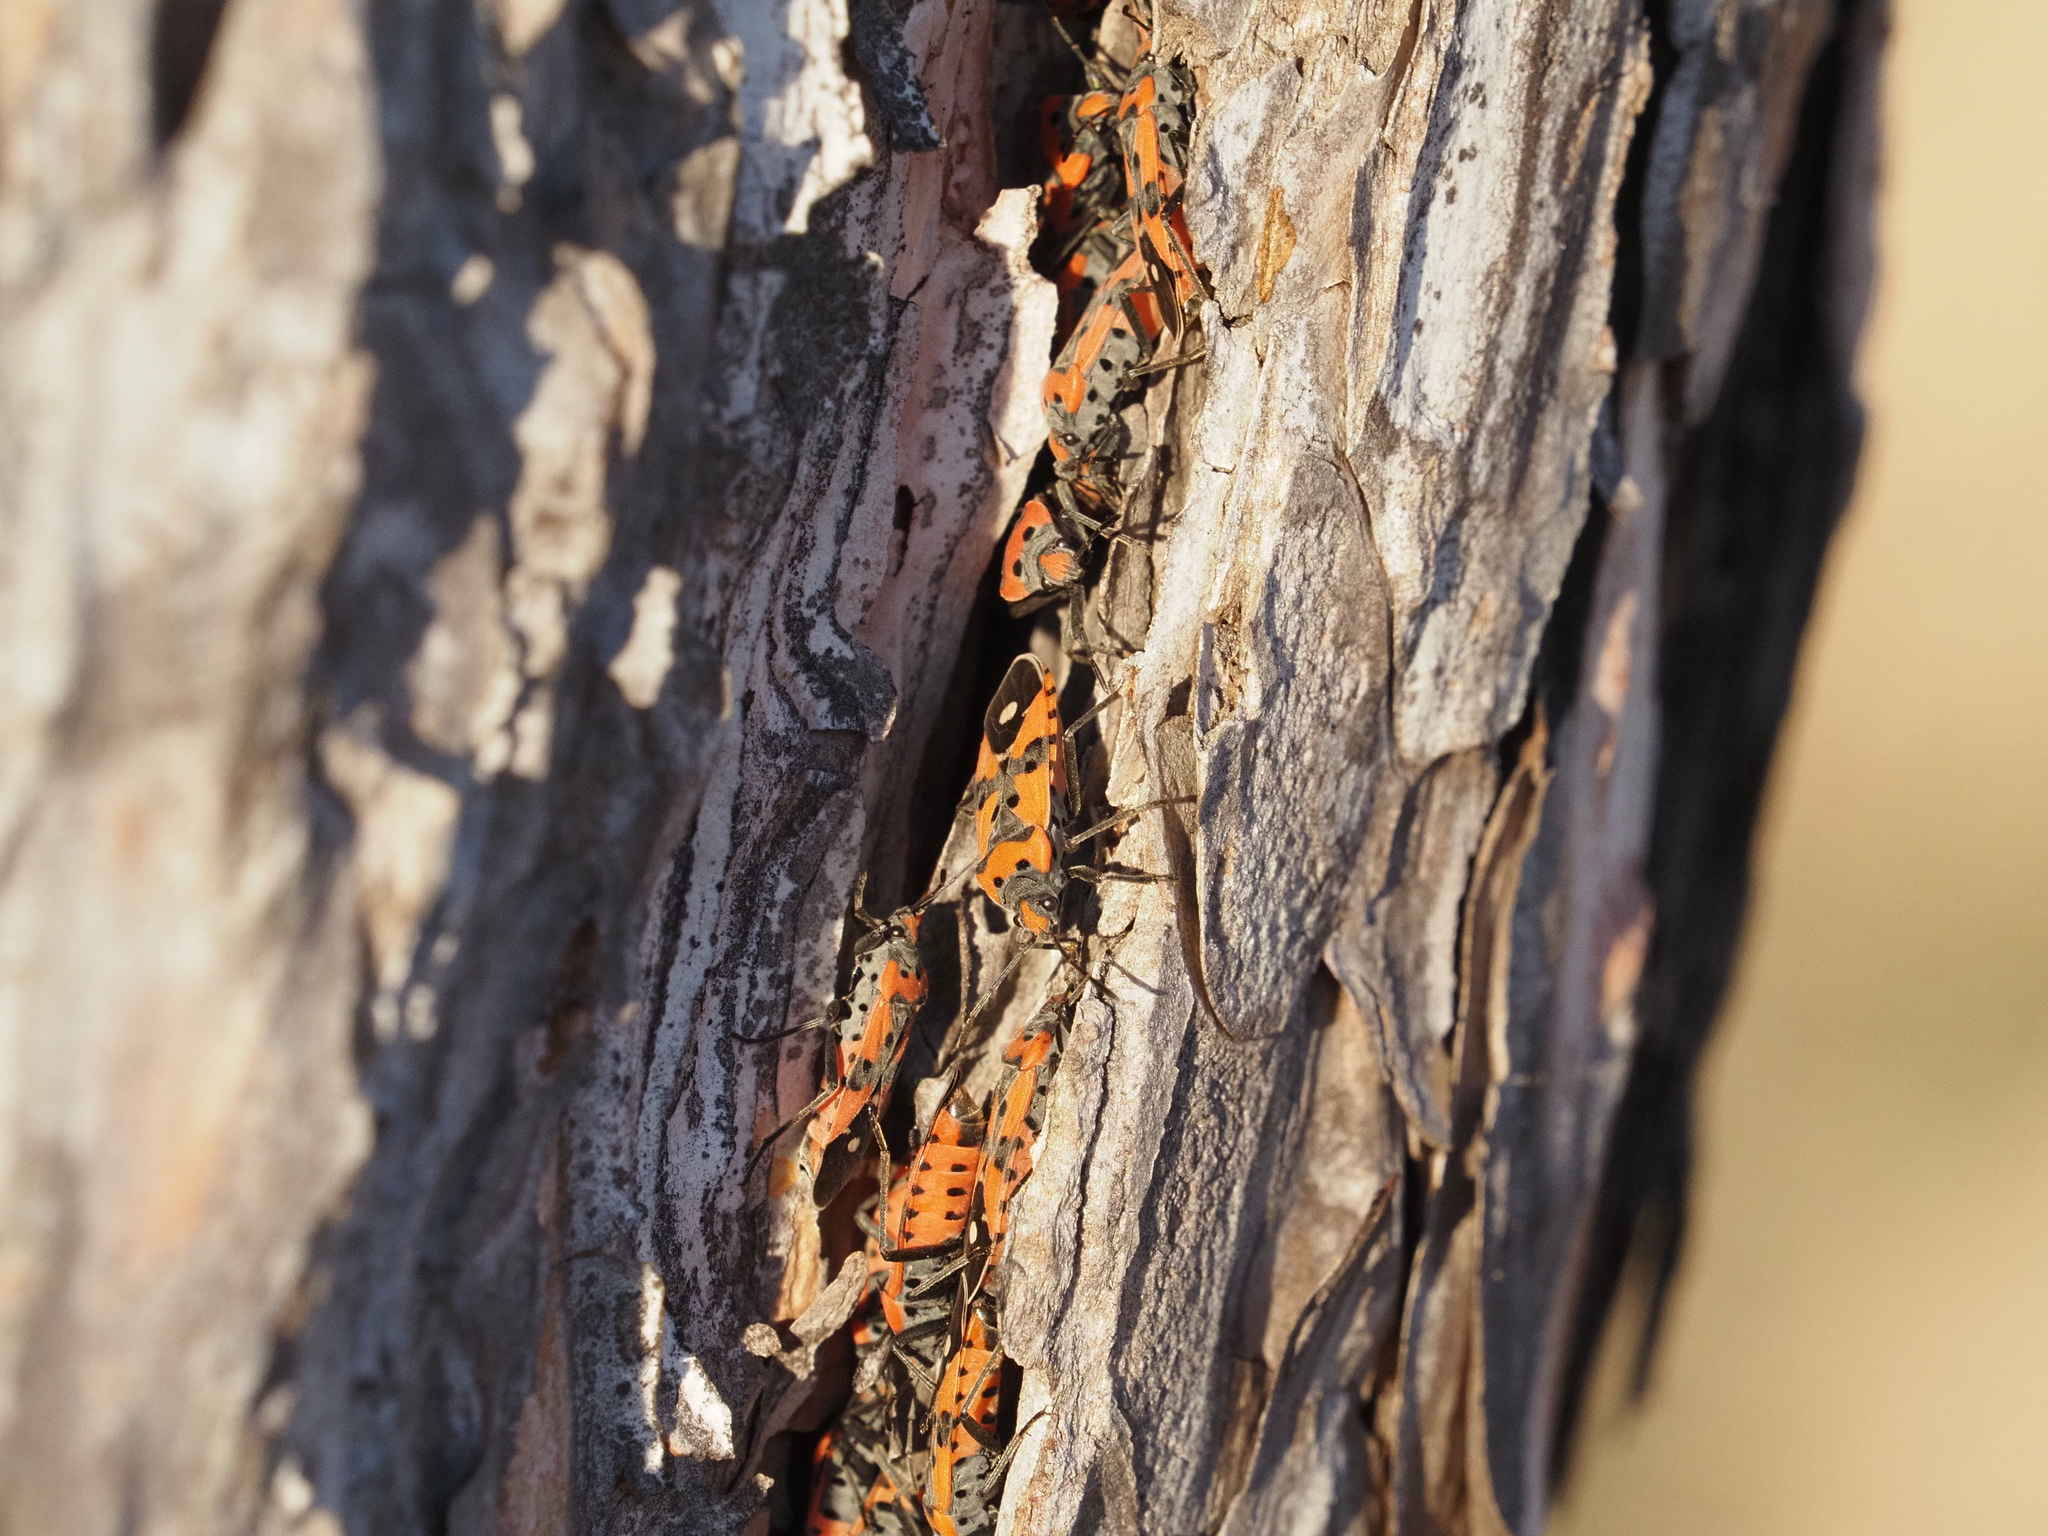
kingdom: Animalia
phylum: Arthropoda
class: Insecta
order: Hemiptera
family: Lygaeidae
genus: Lygaeus
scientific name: Lygaeus equestris
